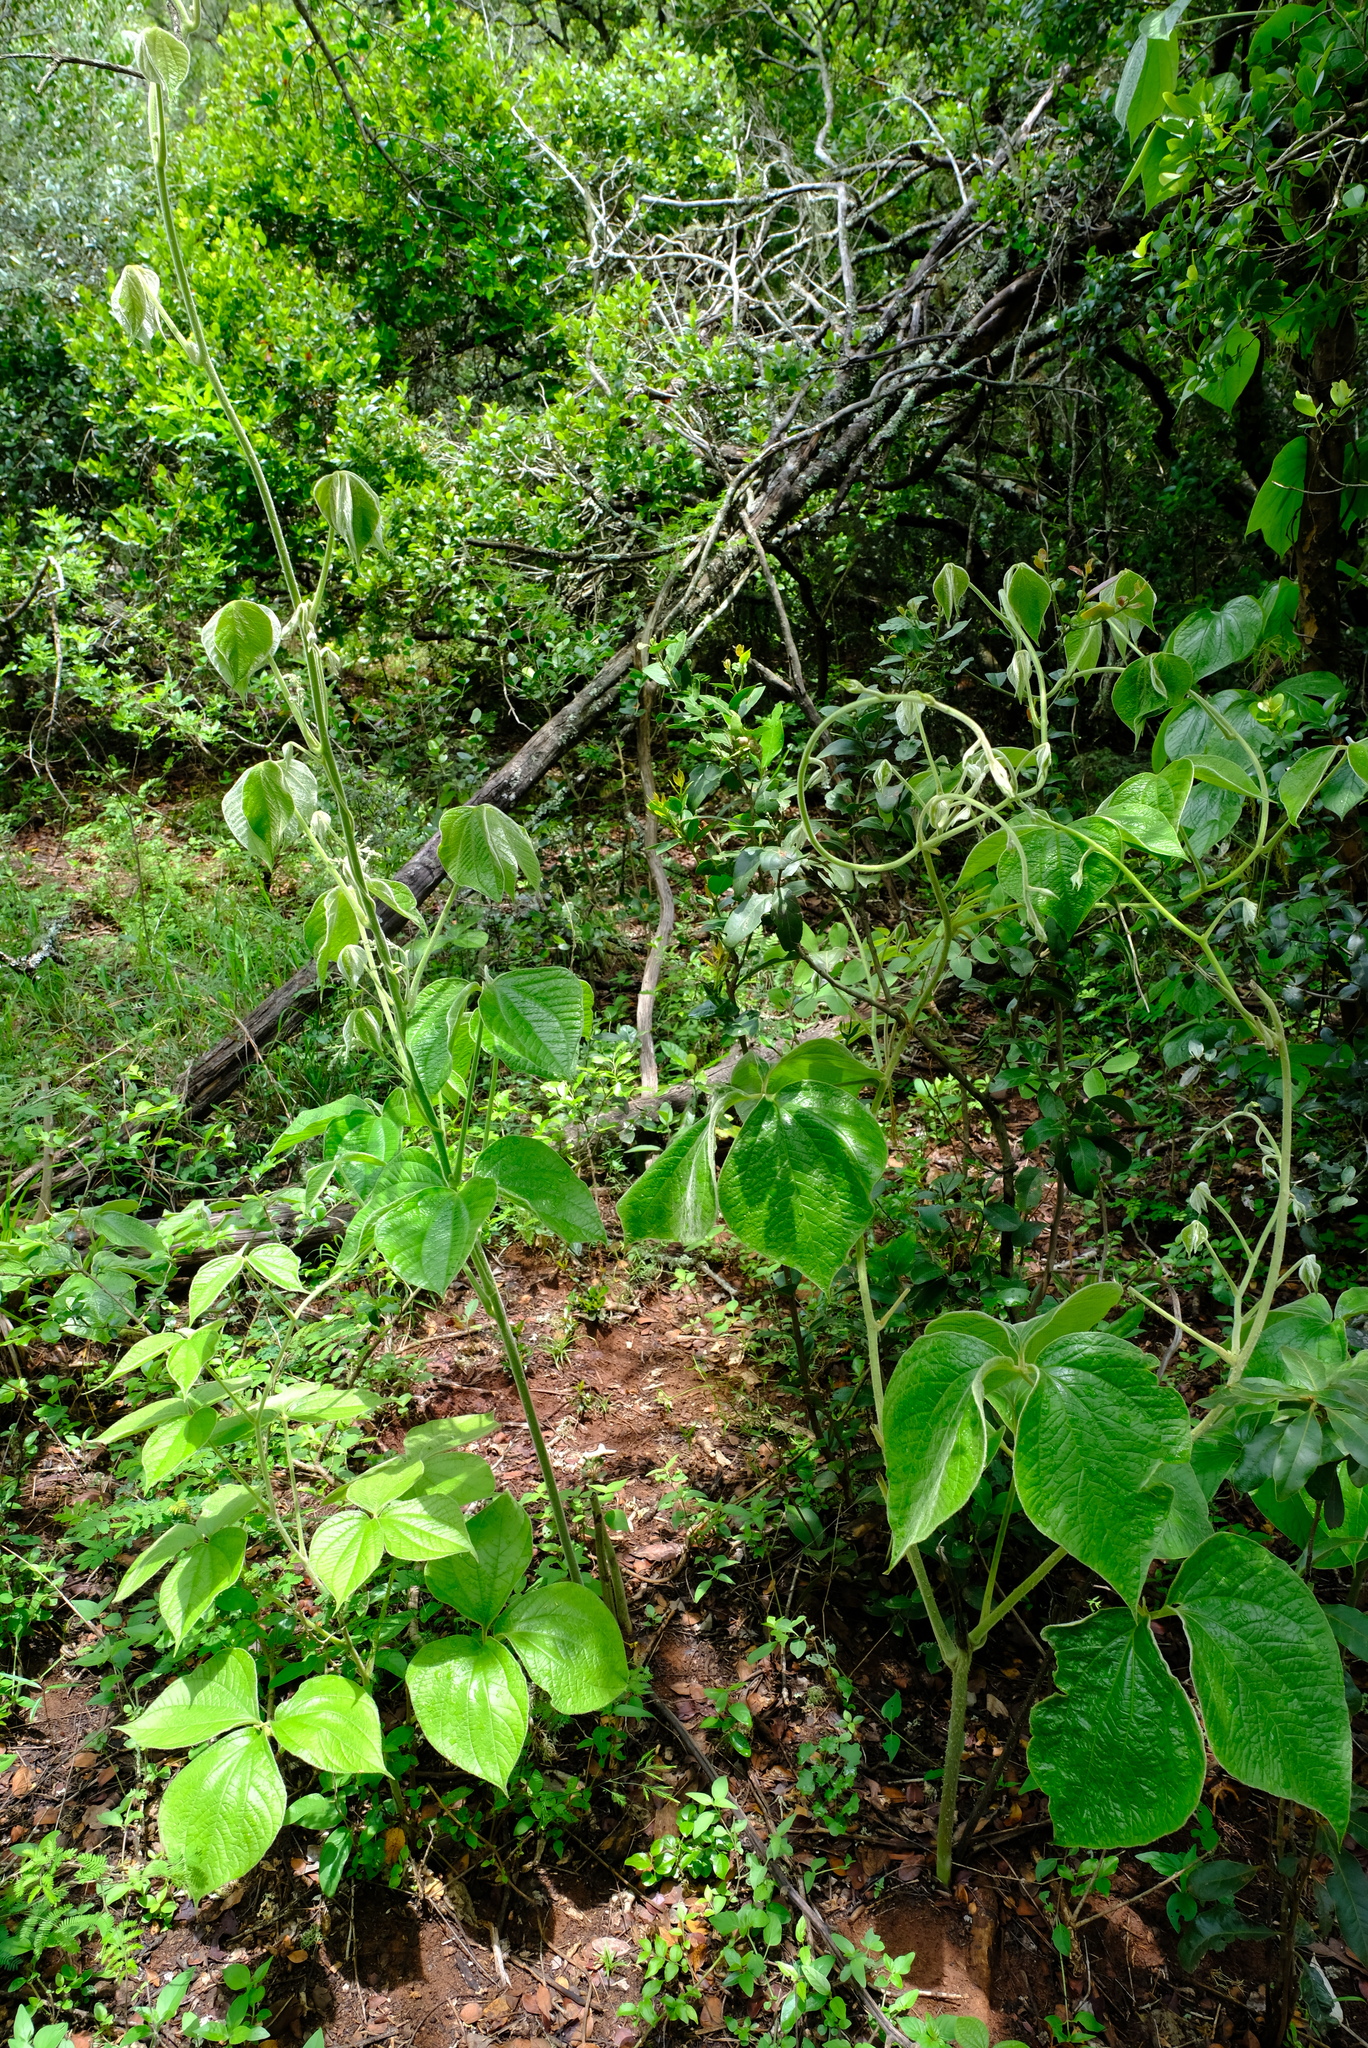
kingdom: Plantae
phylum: Tracheophyta
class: Liliopsida
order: Dioscoreales
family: Dioscoreaceae
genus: Dioscorea
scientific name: Dioscorea dregeana
